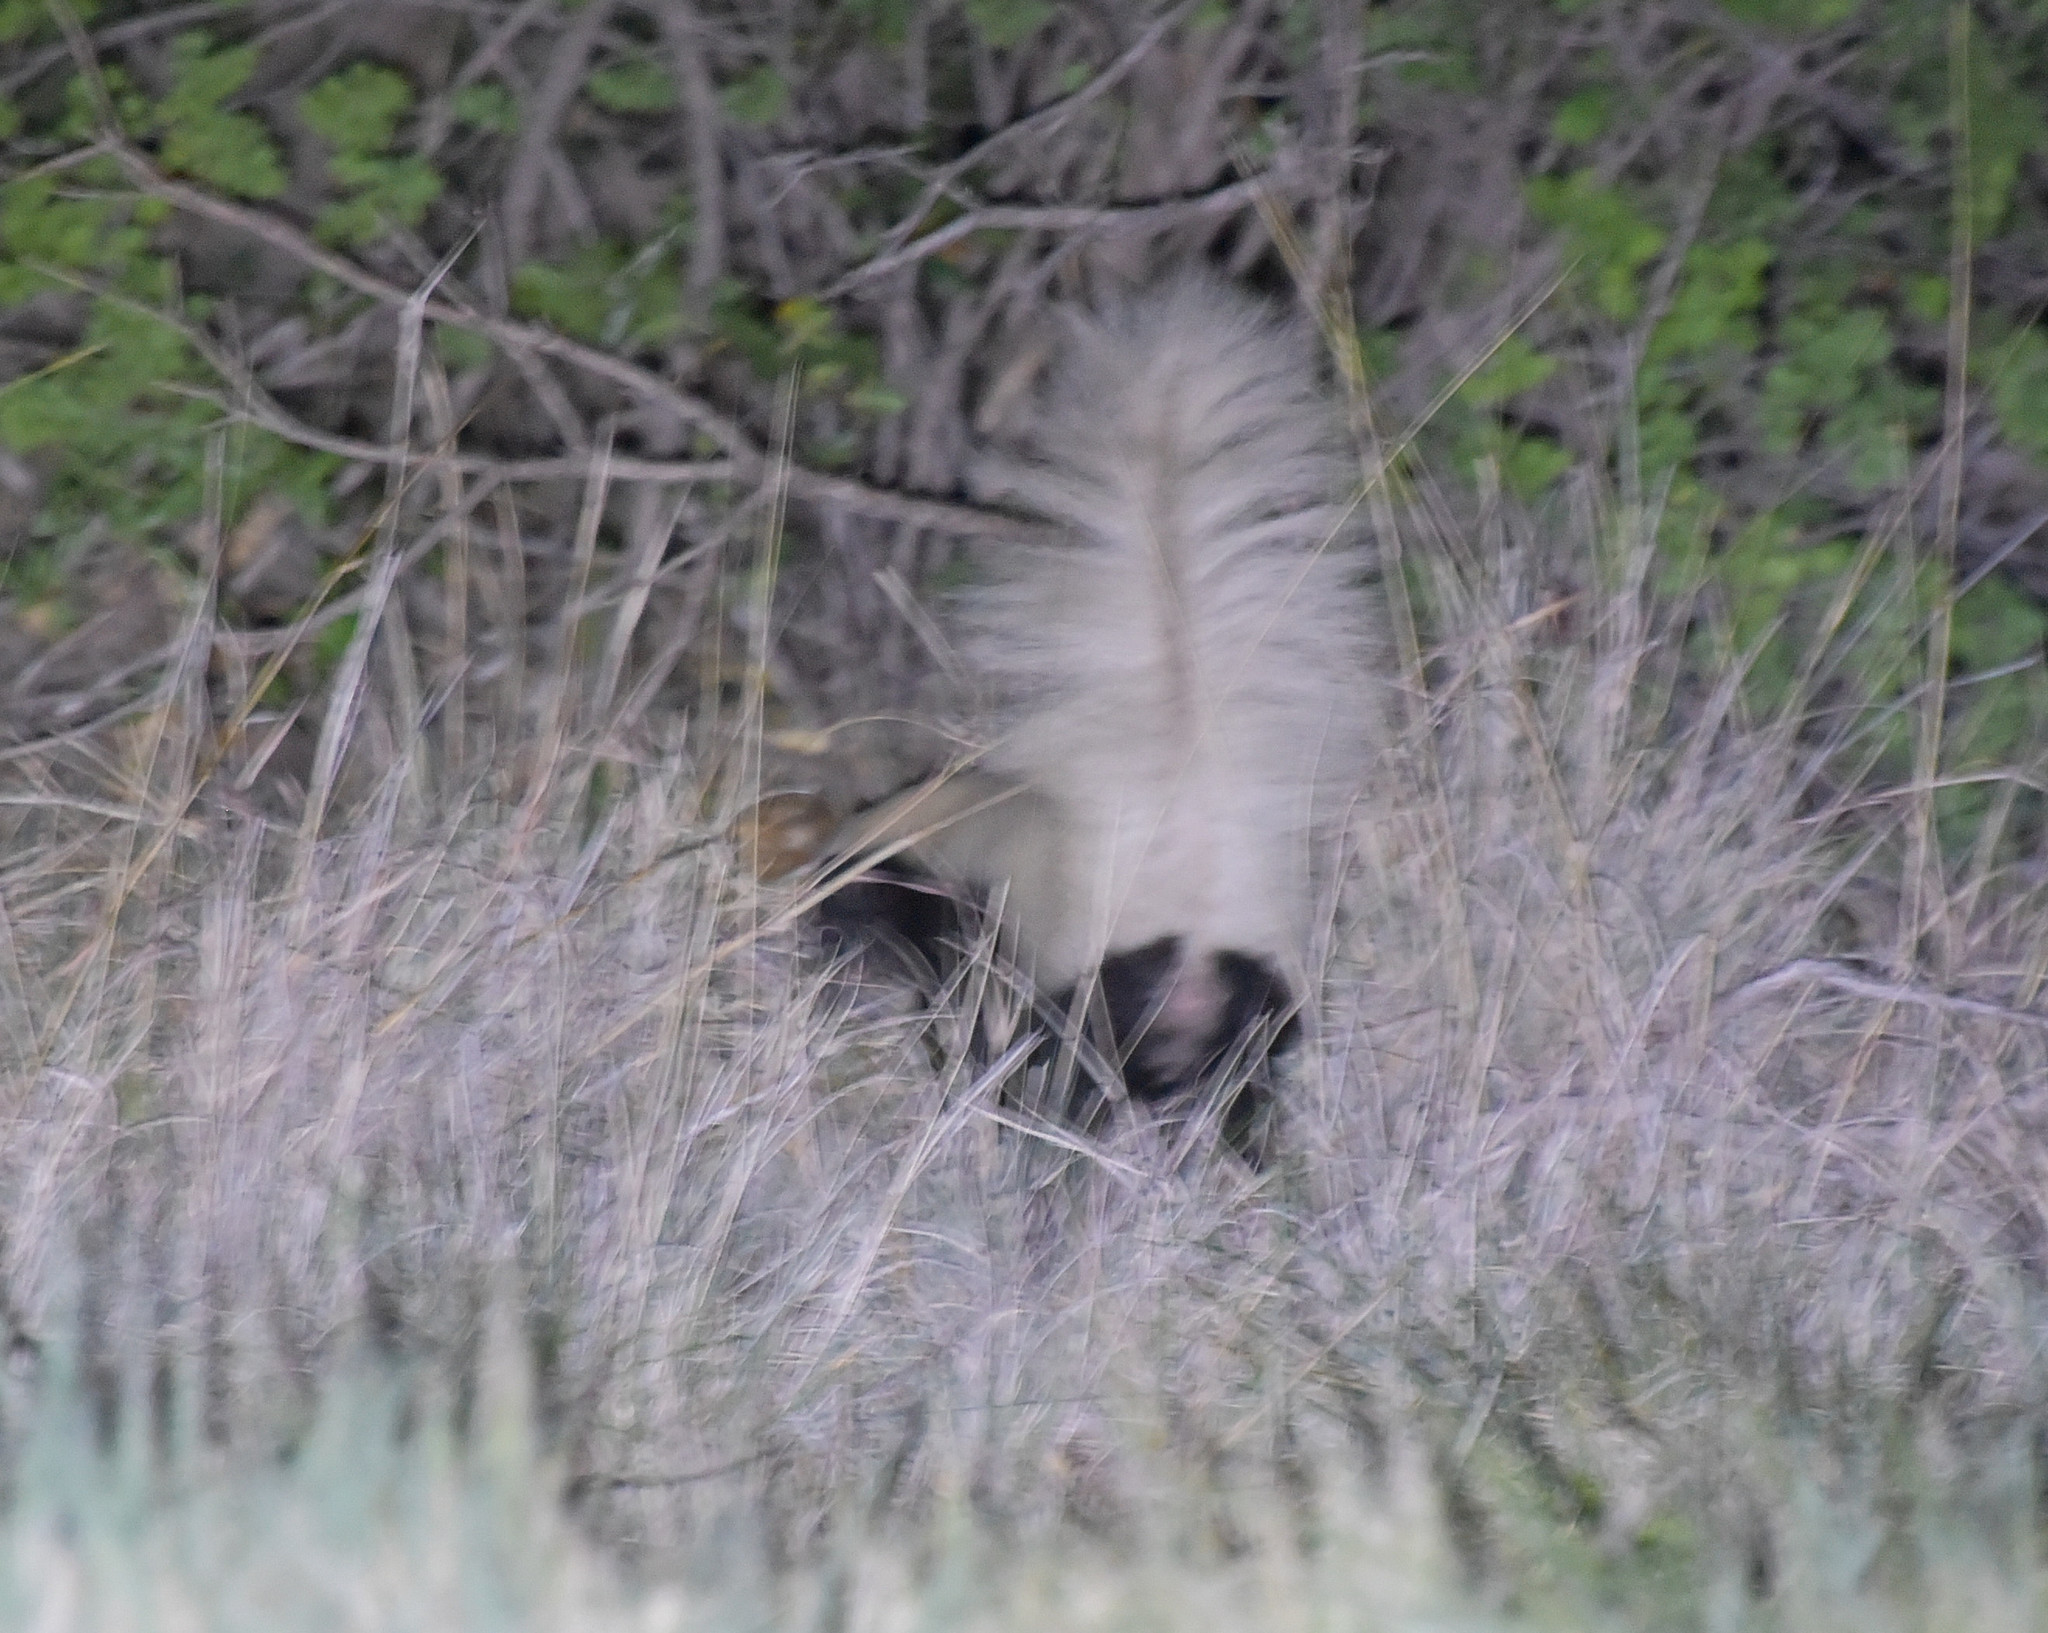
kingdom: Animalia
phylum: Chordata
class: Mammalia
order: Carnivora
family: Mephitidae
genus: Conepatus
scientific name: Conepatus leuconotus
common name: Eastern hog-nosed skunk
